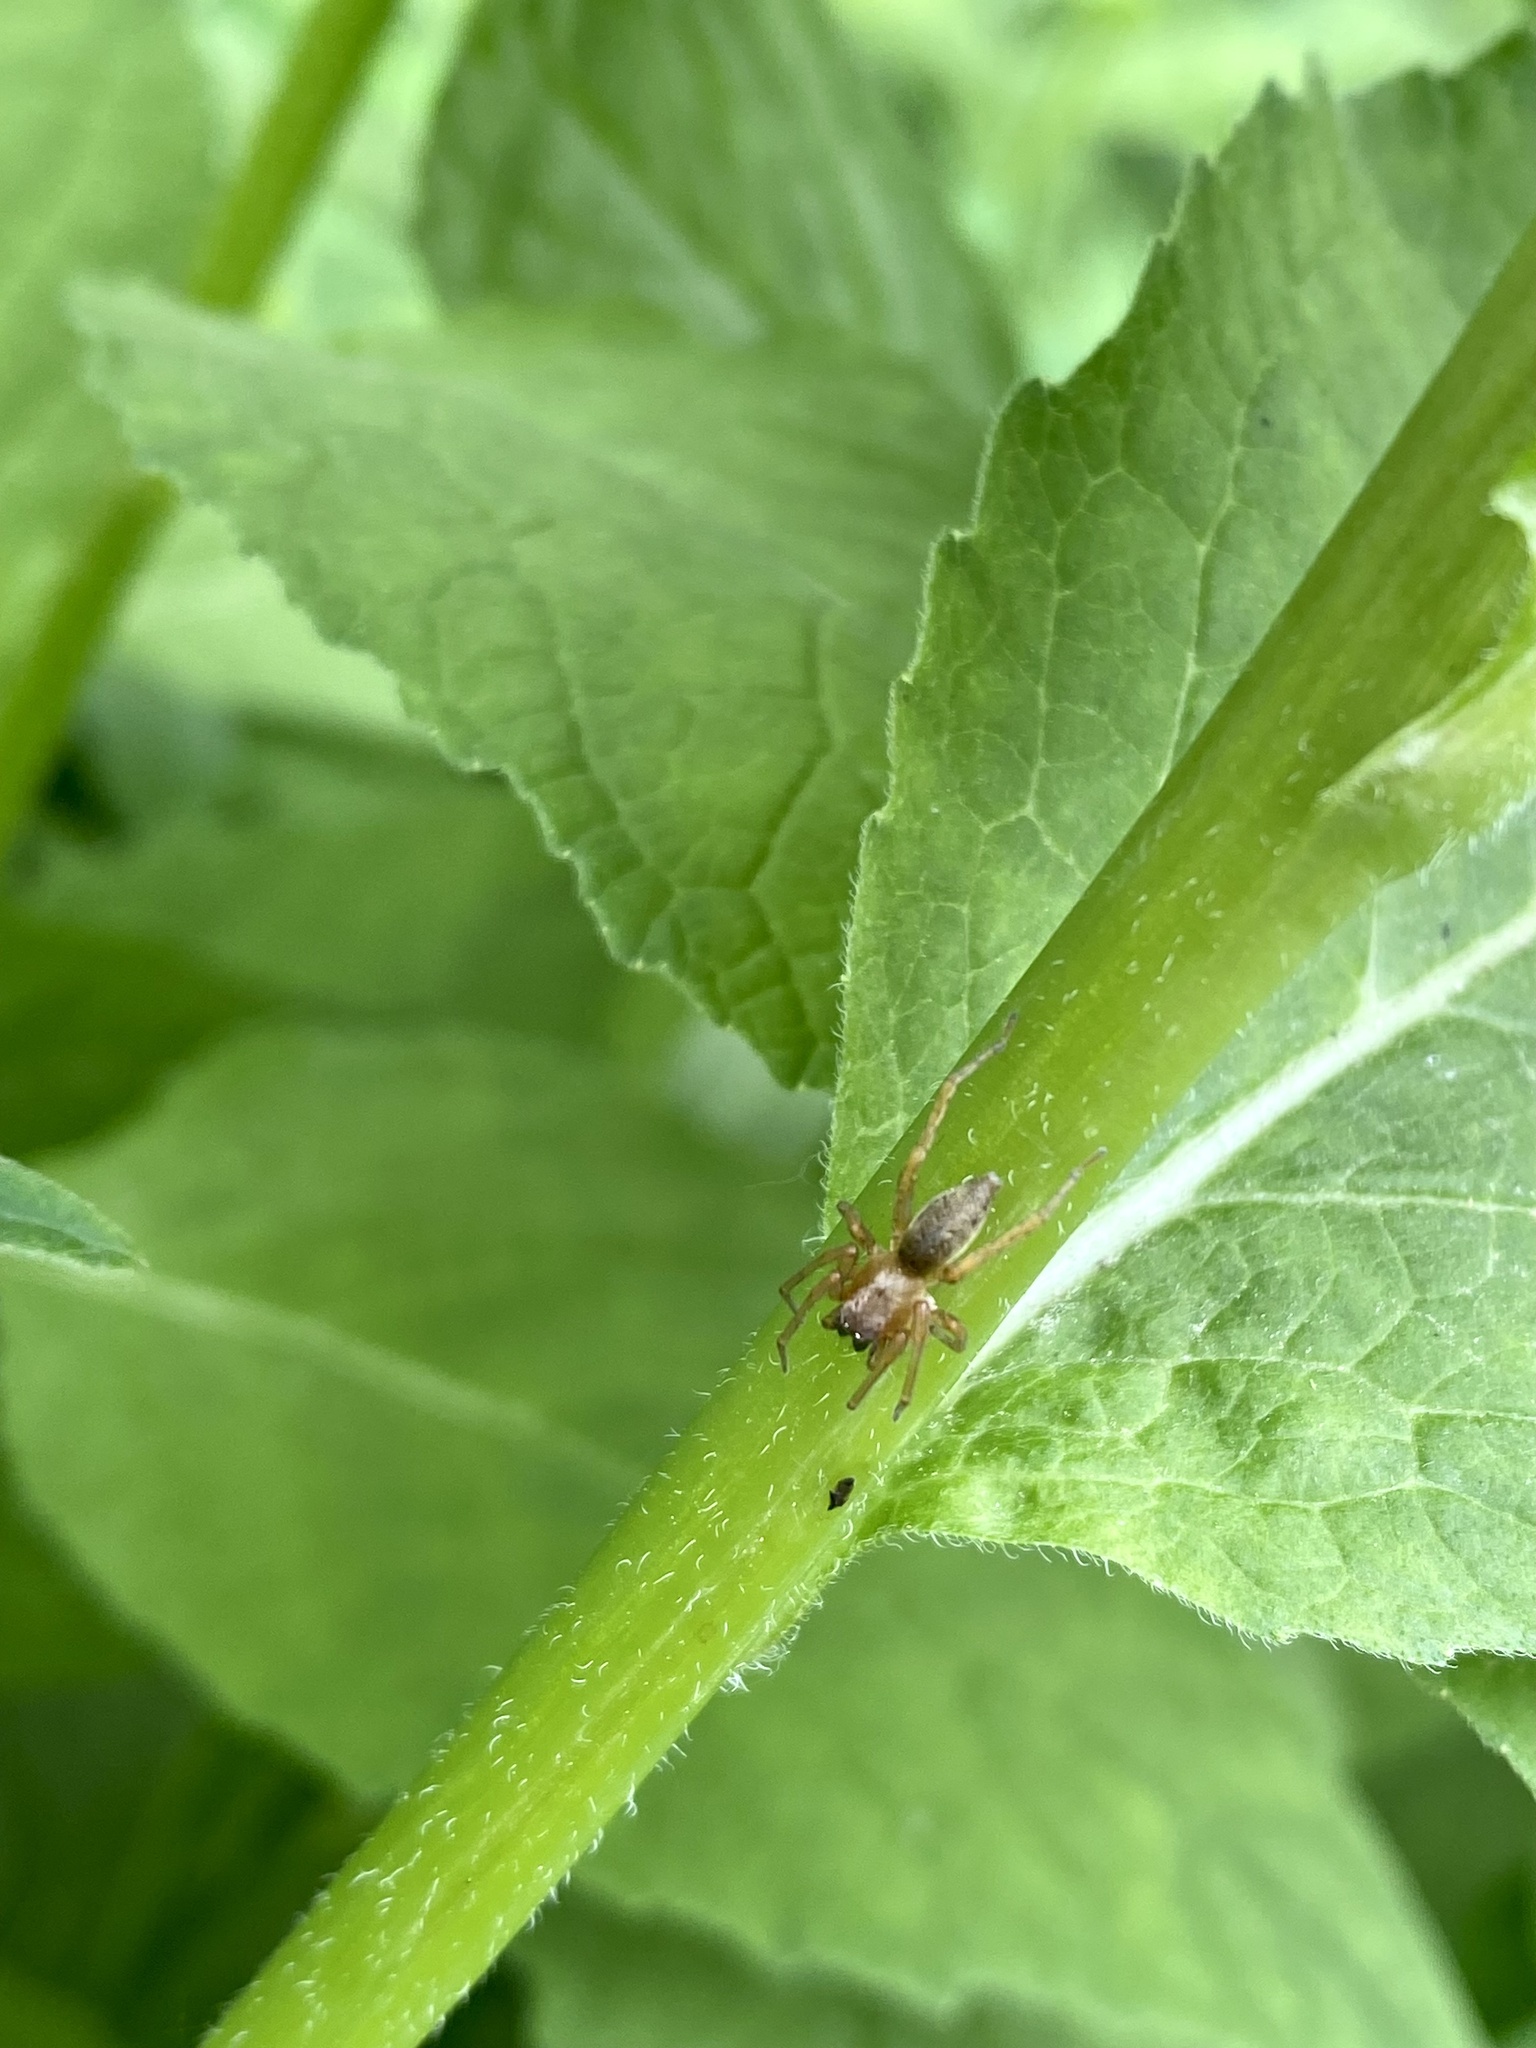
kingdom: Animalia
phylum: Arthropoda
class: Arachnida
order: Araneae
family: Clubionidae
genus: Clubiona
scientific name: Clubiona
